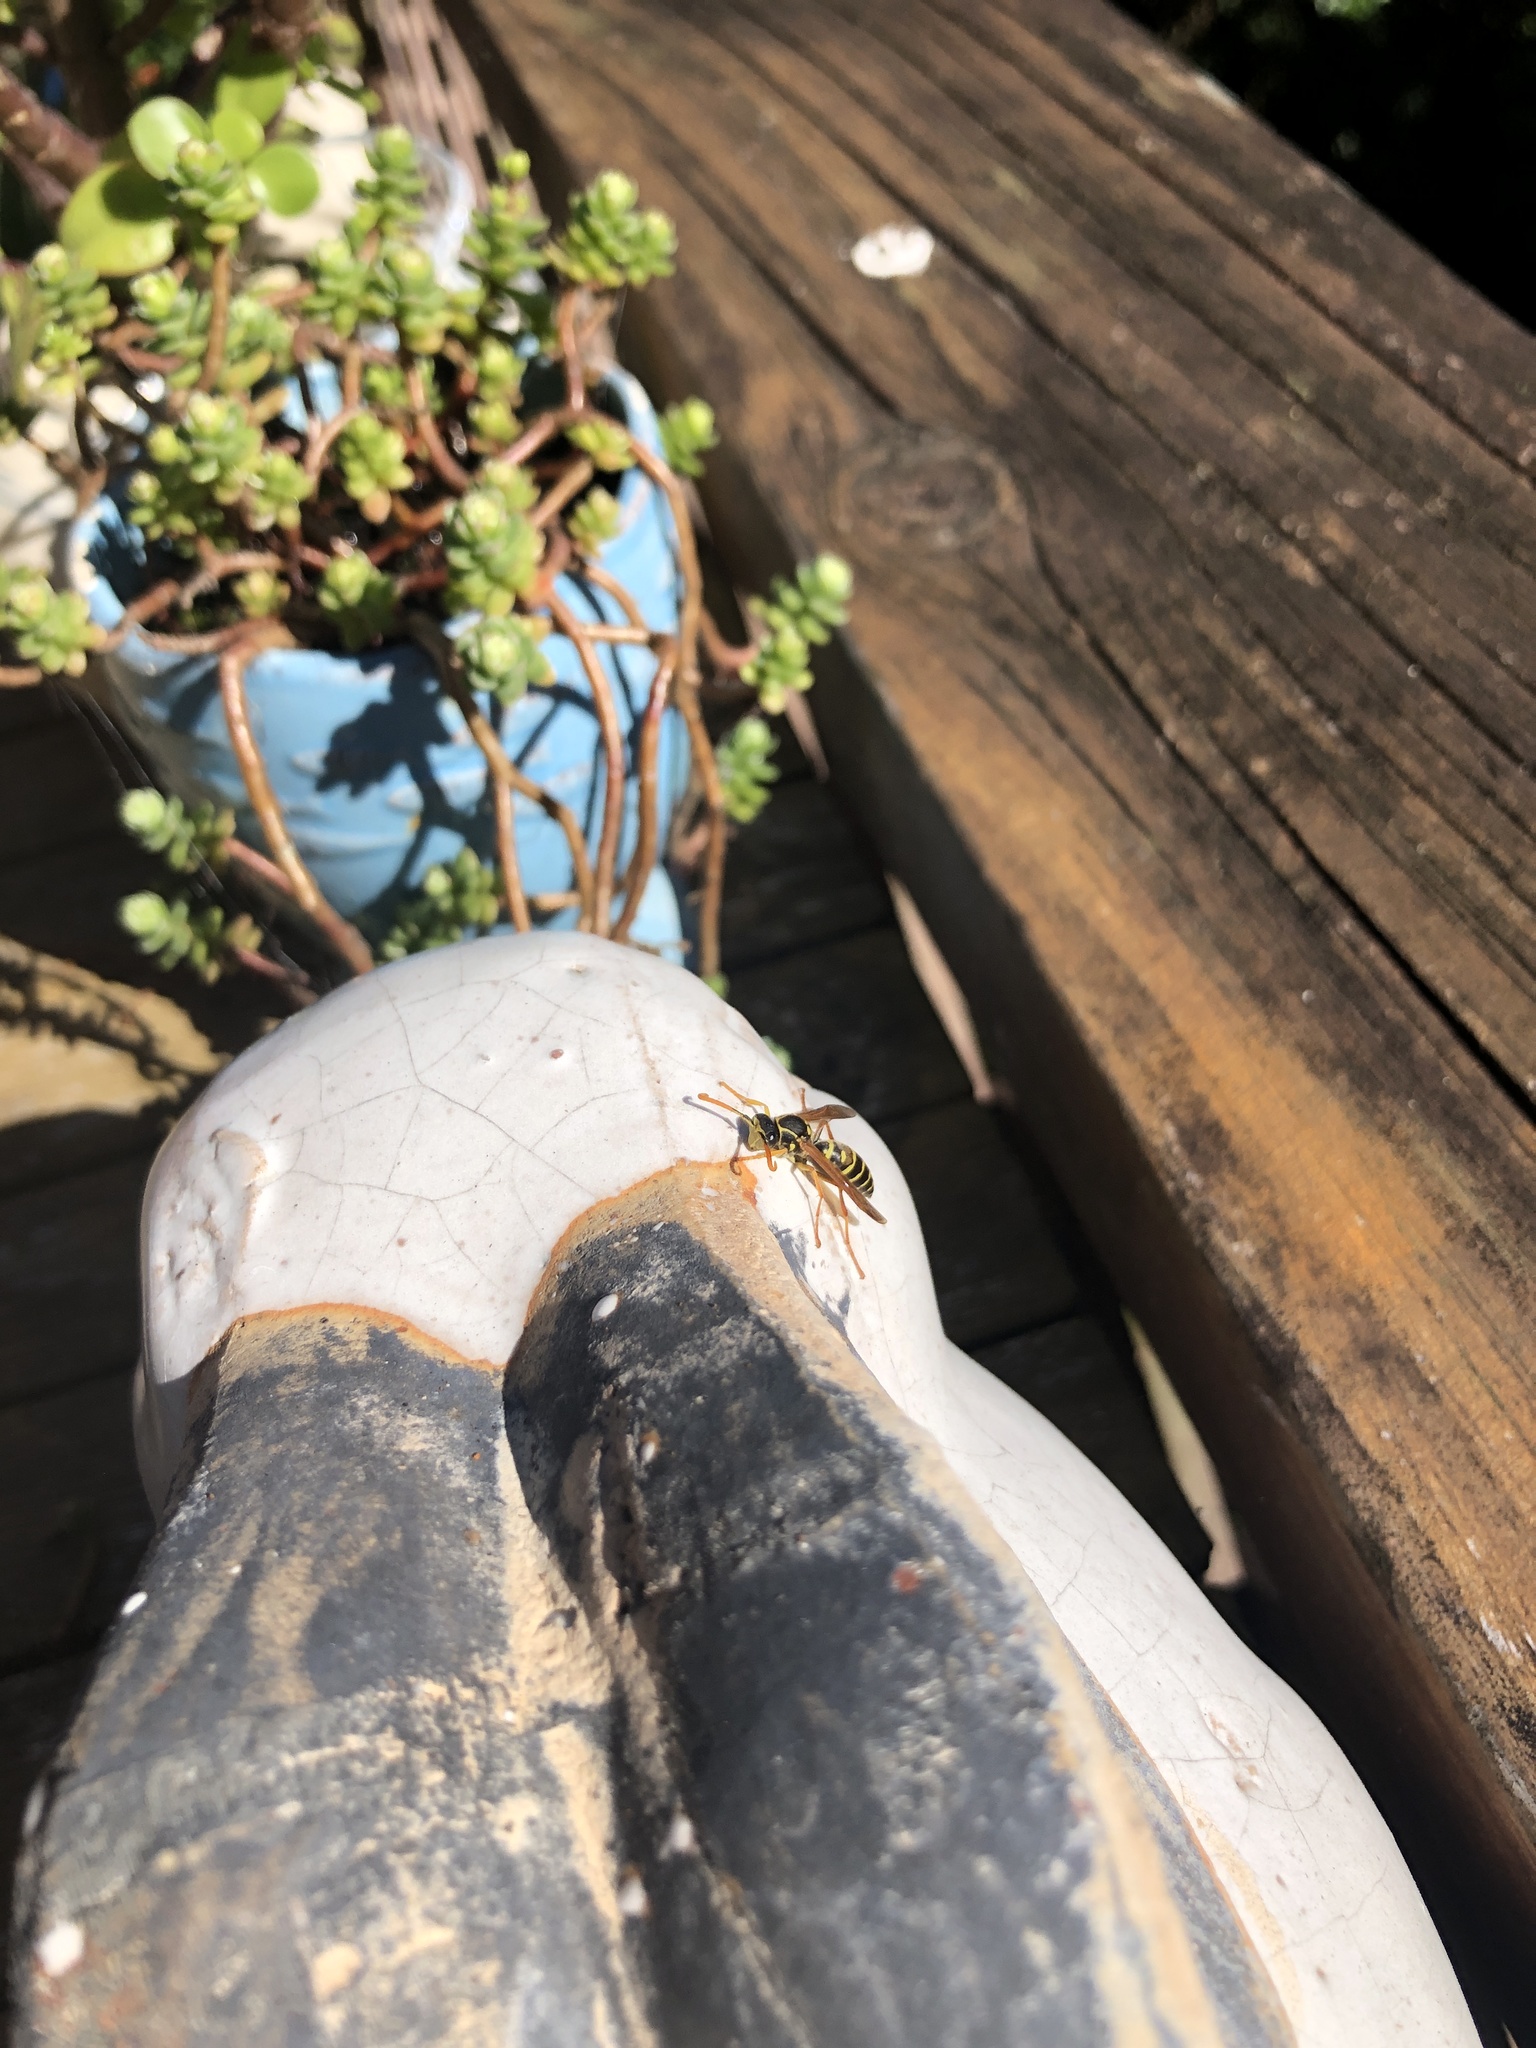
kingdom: Animalia
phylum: Arthropoda
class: Insecta
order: Hymenoptera
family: Eumenidae
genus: Polistes
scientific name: Polistes chinensis
